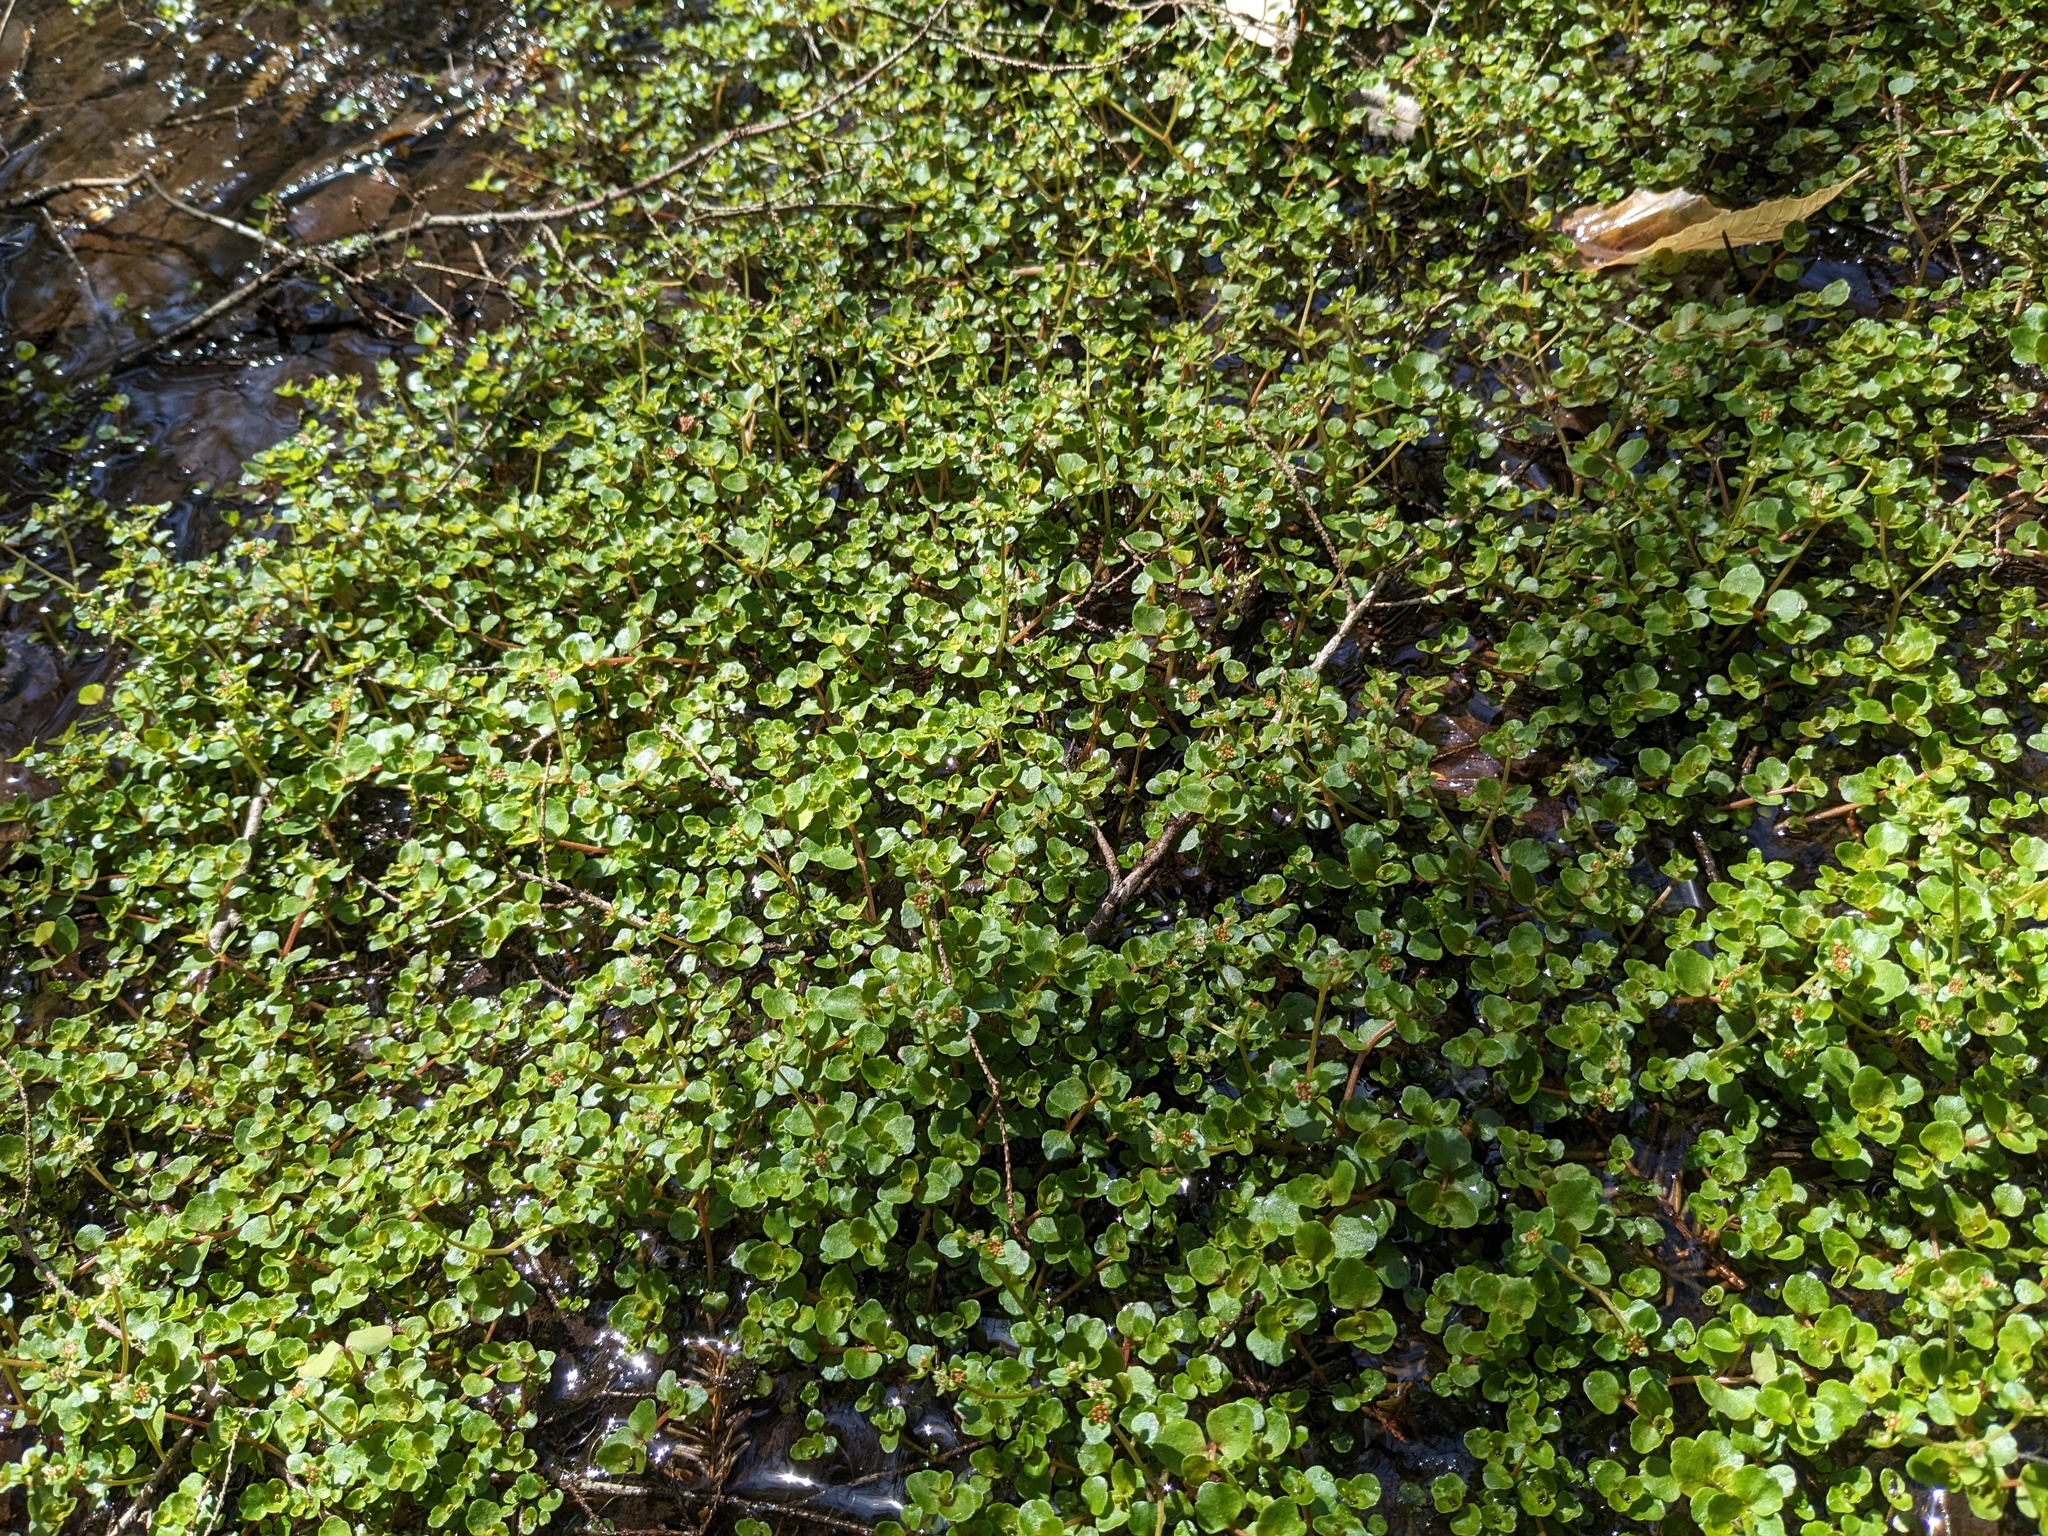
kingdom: Plantae
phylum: Tracheophyta
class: Magnoliopsida
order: Saxifragales
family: Saxifragaceae
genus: Chrysosplenium
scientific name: Chrysosplenium americanum
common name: American golden-saxifrage
